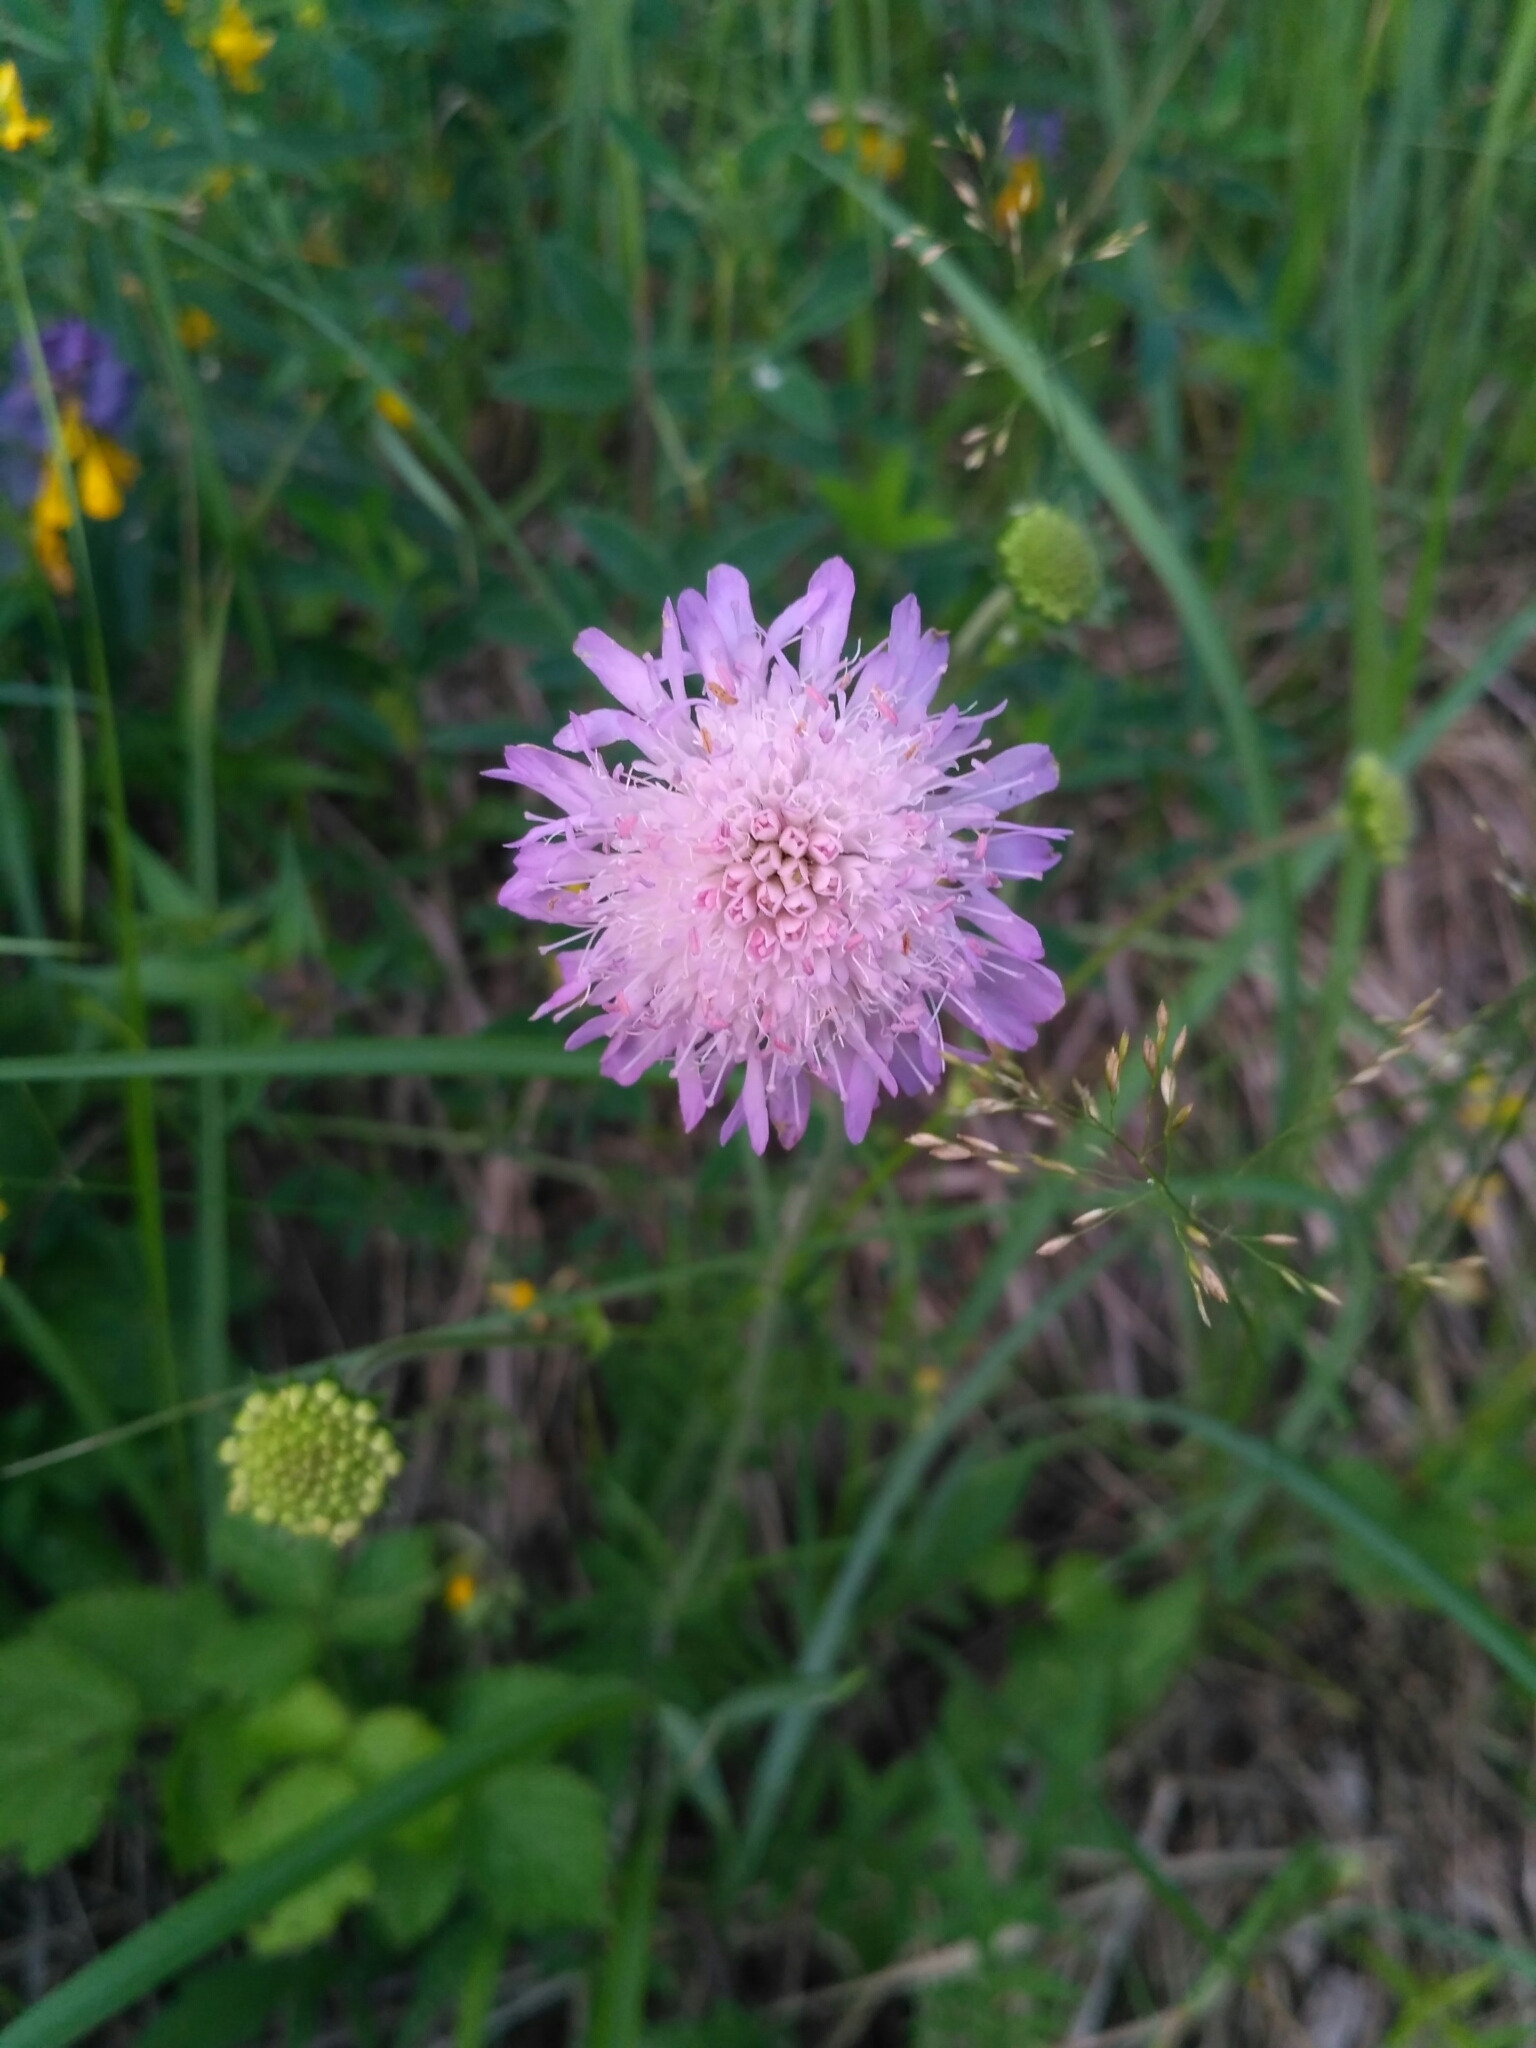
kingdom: Plantae
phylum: Tracheophyta
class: Magnoliopsida
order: Dipsacales
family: Caprifoliaceae
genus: Knautia
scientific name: Knautia arvensis
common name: Field scabiosa
